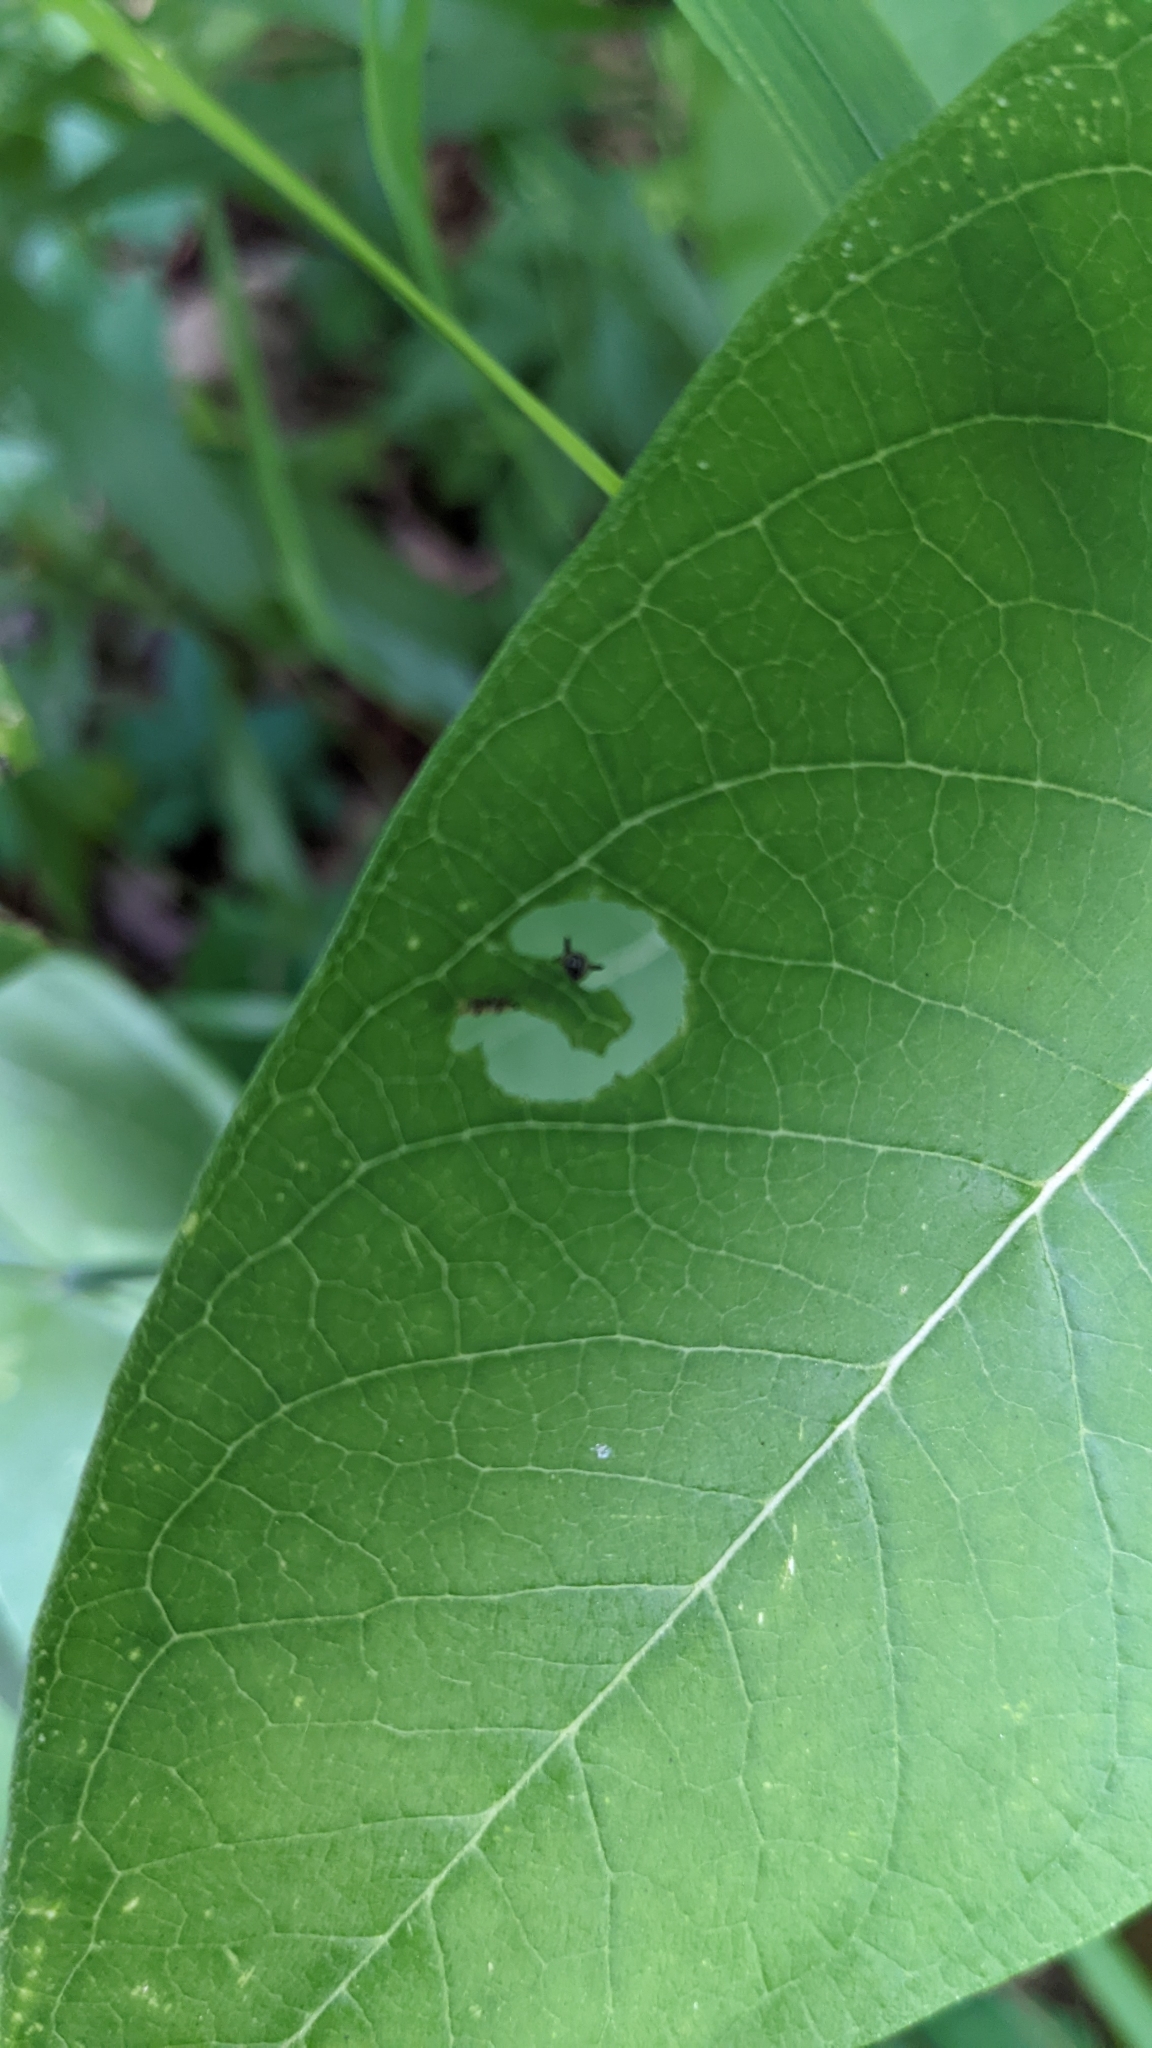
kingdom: Animalia
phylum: Arthropoda
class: Insecta
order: Lepidoptera
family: Nymphalidae
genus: Danaus
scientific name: Danaus plexippus
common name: Monarch
